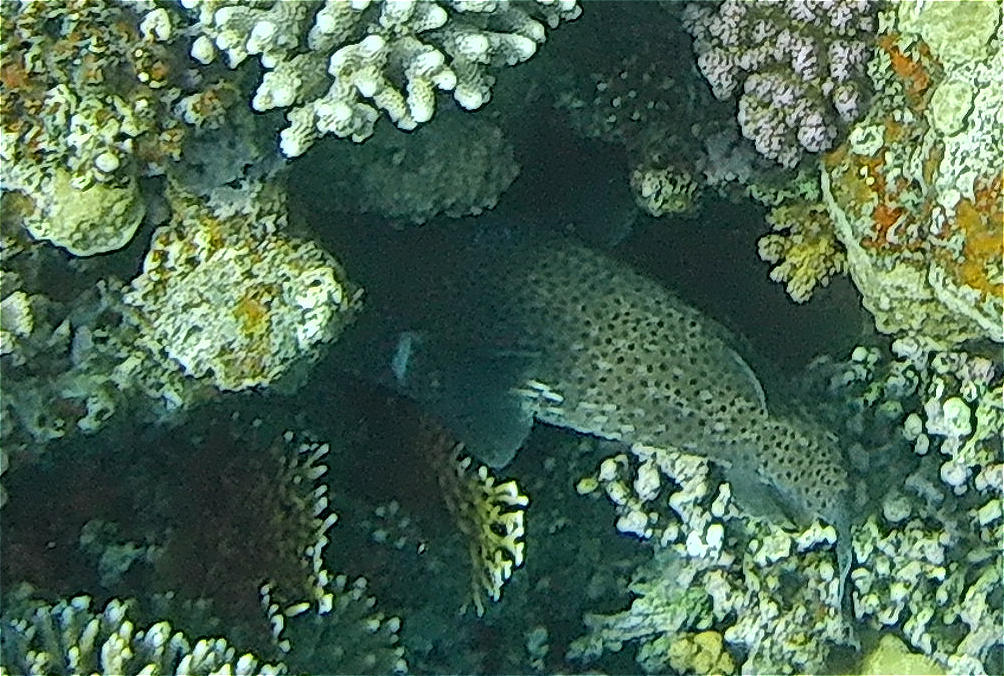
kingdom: Animalia
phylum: Chordata
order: Tetraodontiformes
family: Diodontidae
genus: Diodon
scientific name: Diodon hystrix
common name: Giant porcupinefish
